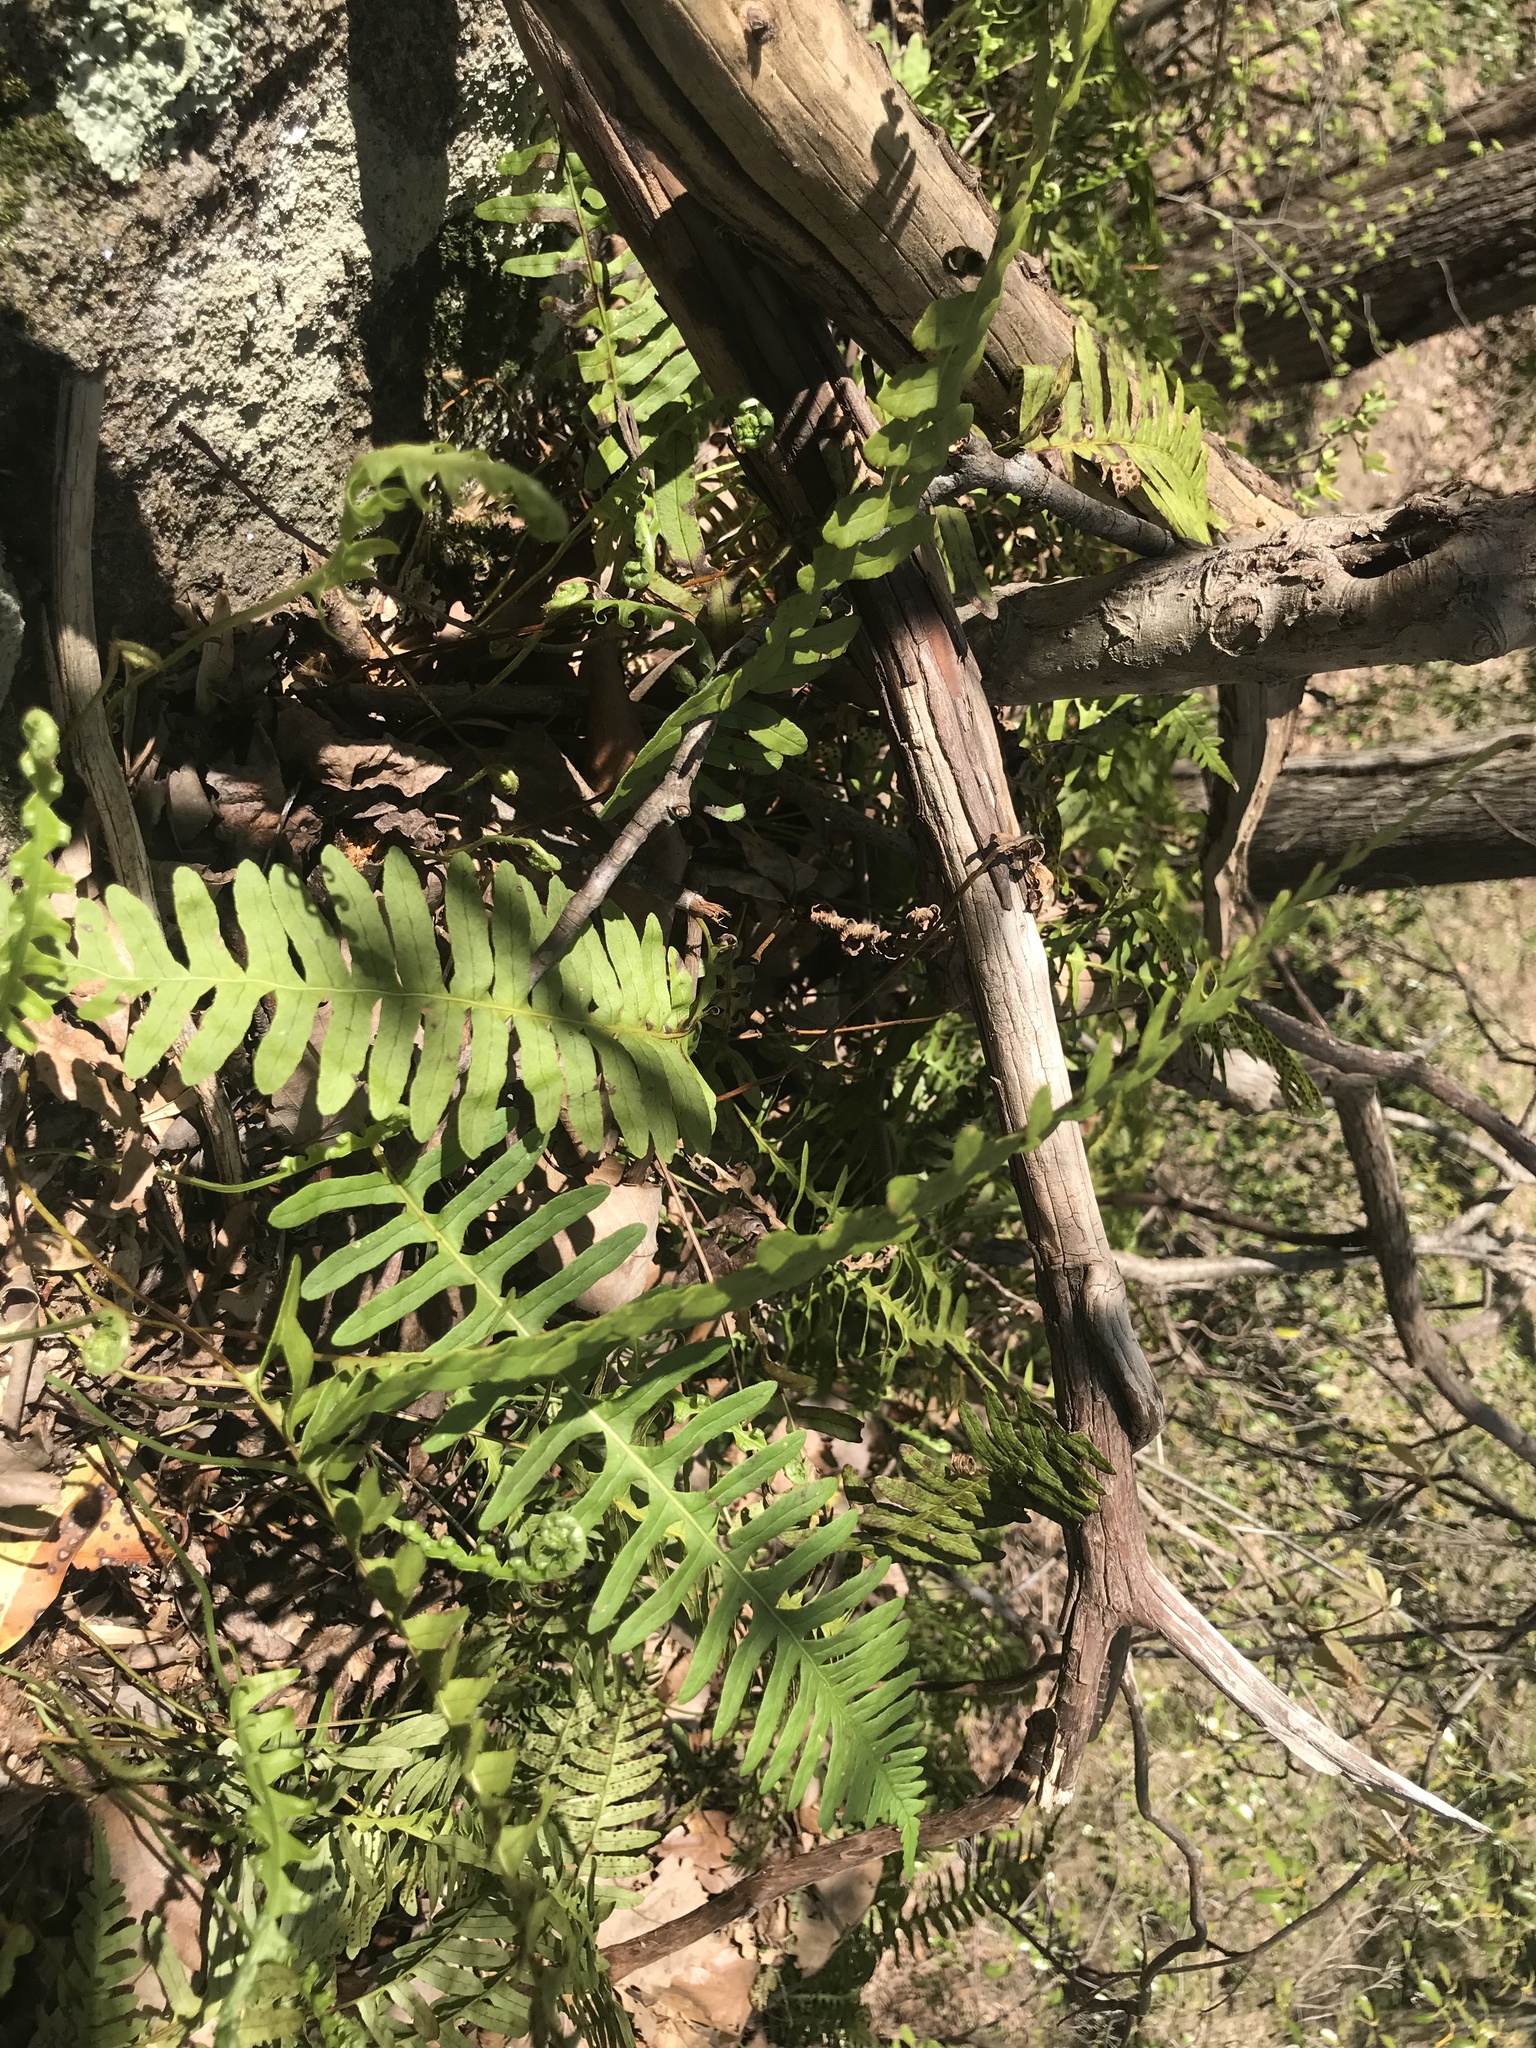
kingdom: Plantae
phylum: Tracheophyta
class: Polypodiopsida
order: Polypodiales
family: Polypodiaceae
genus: Polypodium
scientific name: Polypodium virginianum
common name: American wall fern
